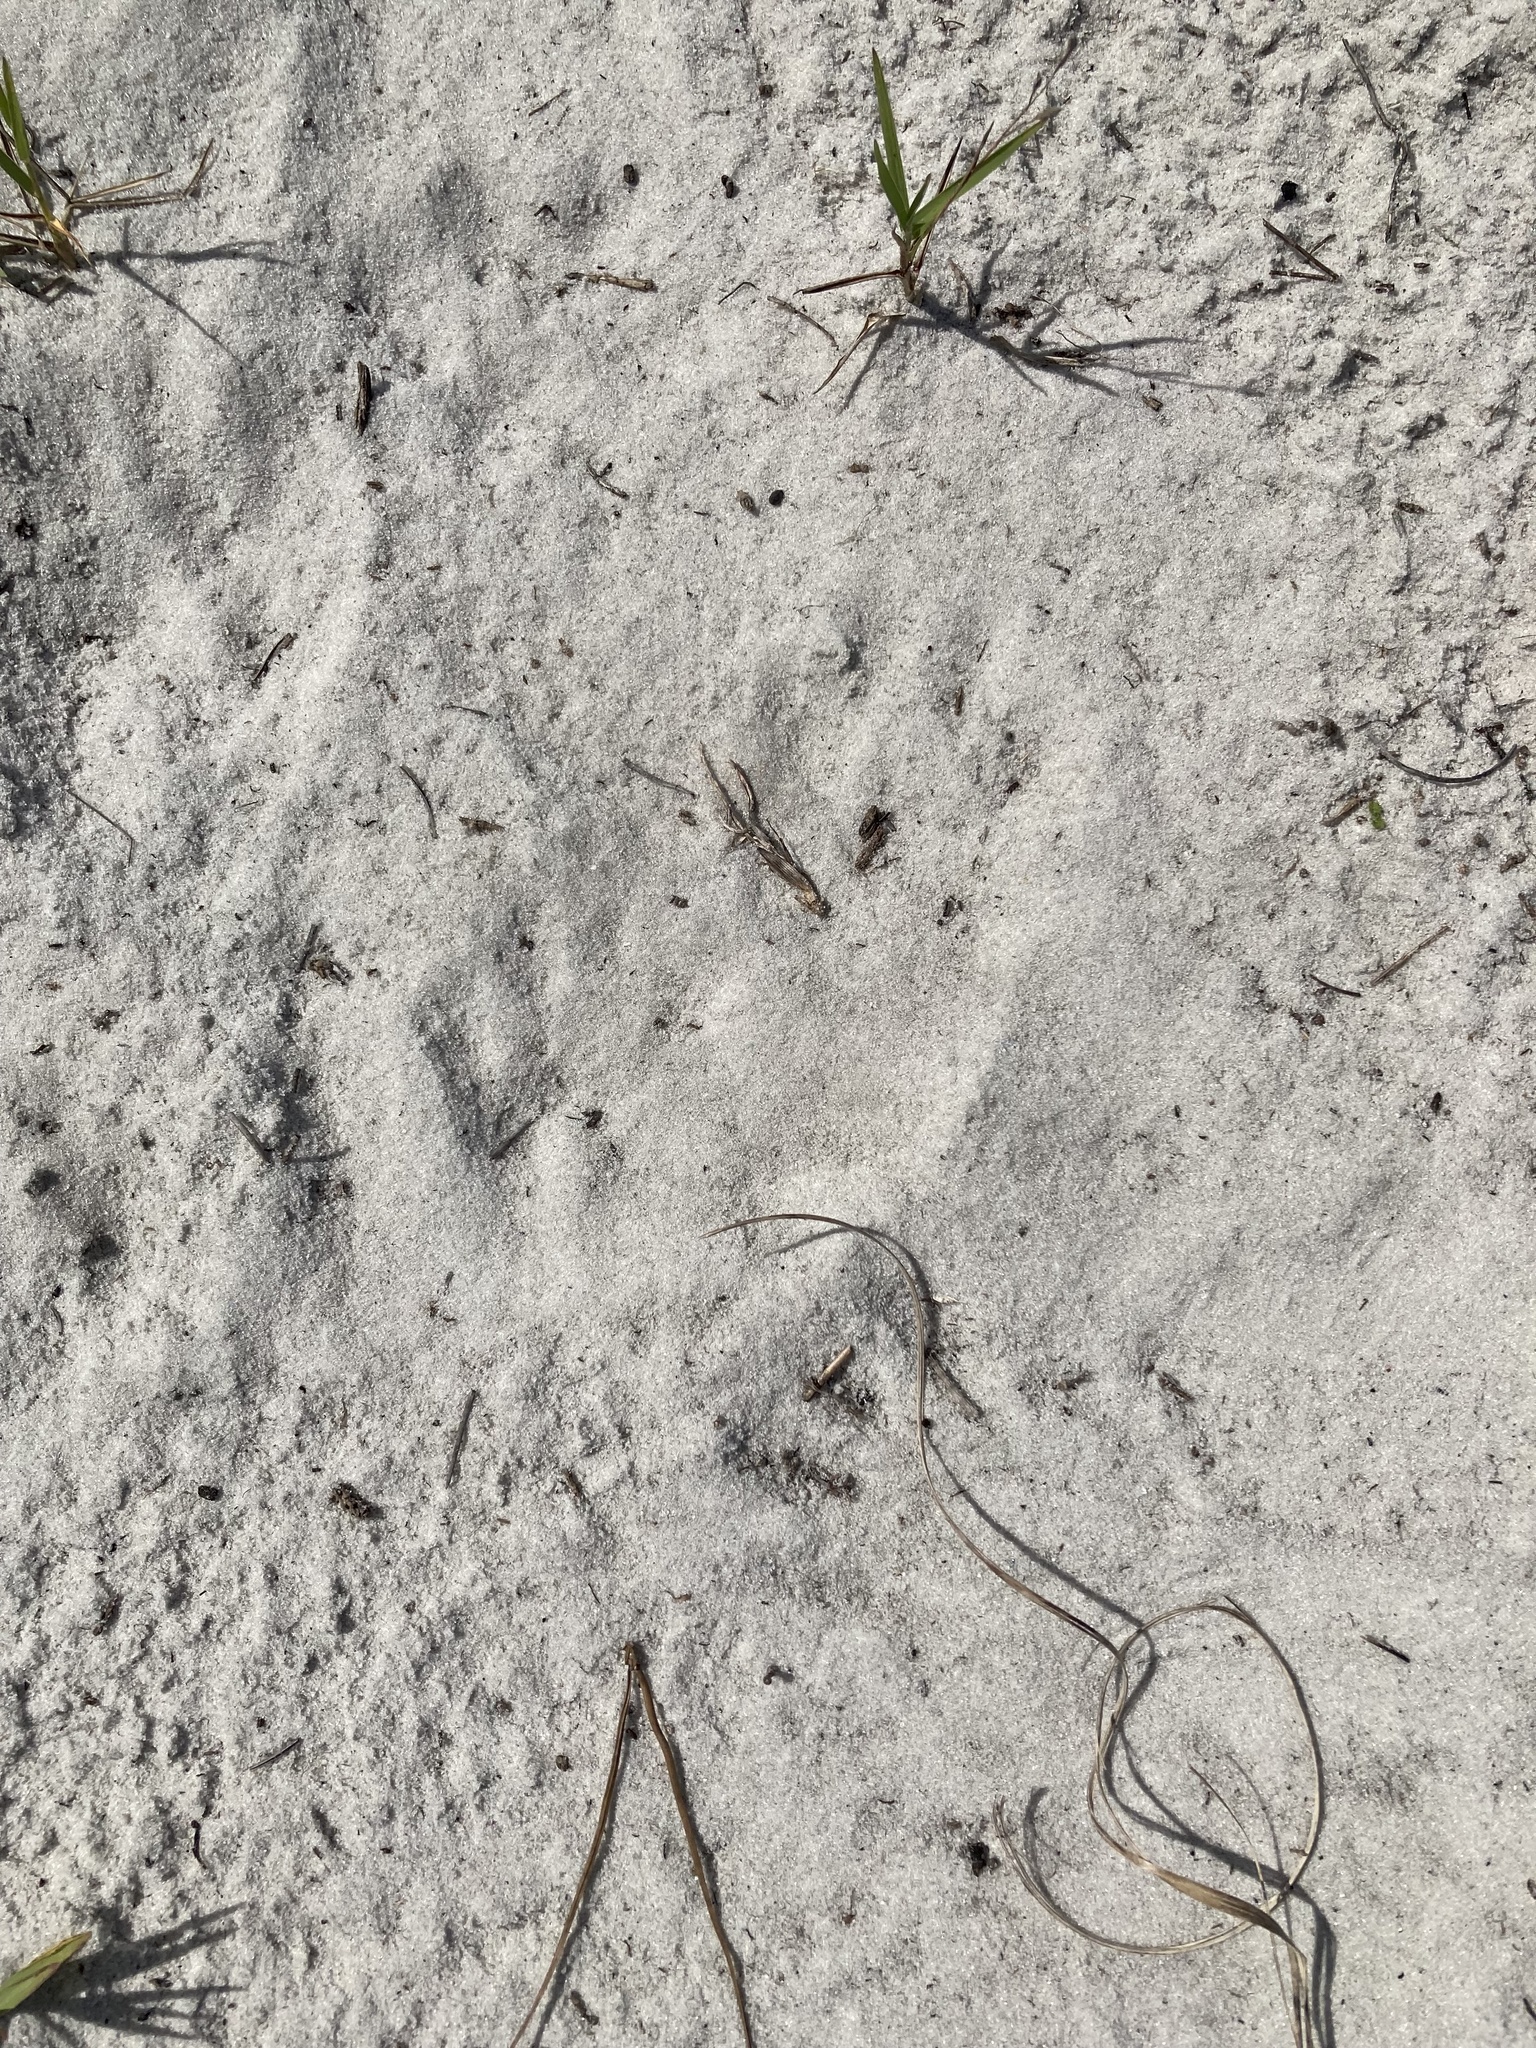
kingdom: Animalia
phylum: Chordata
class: Mammalia
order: Carnivora
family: Procyonidae
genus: Procyon
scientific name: Procyon lotor
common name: Raccoon
